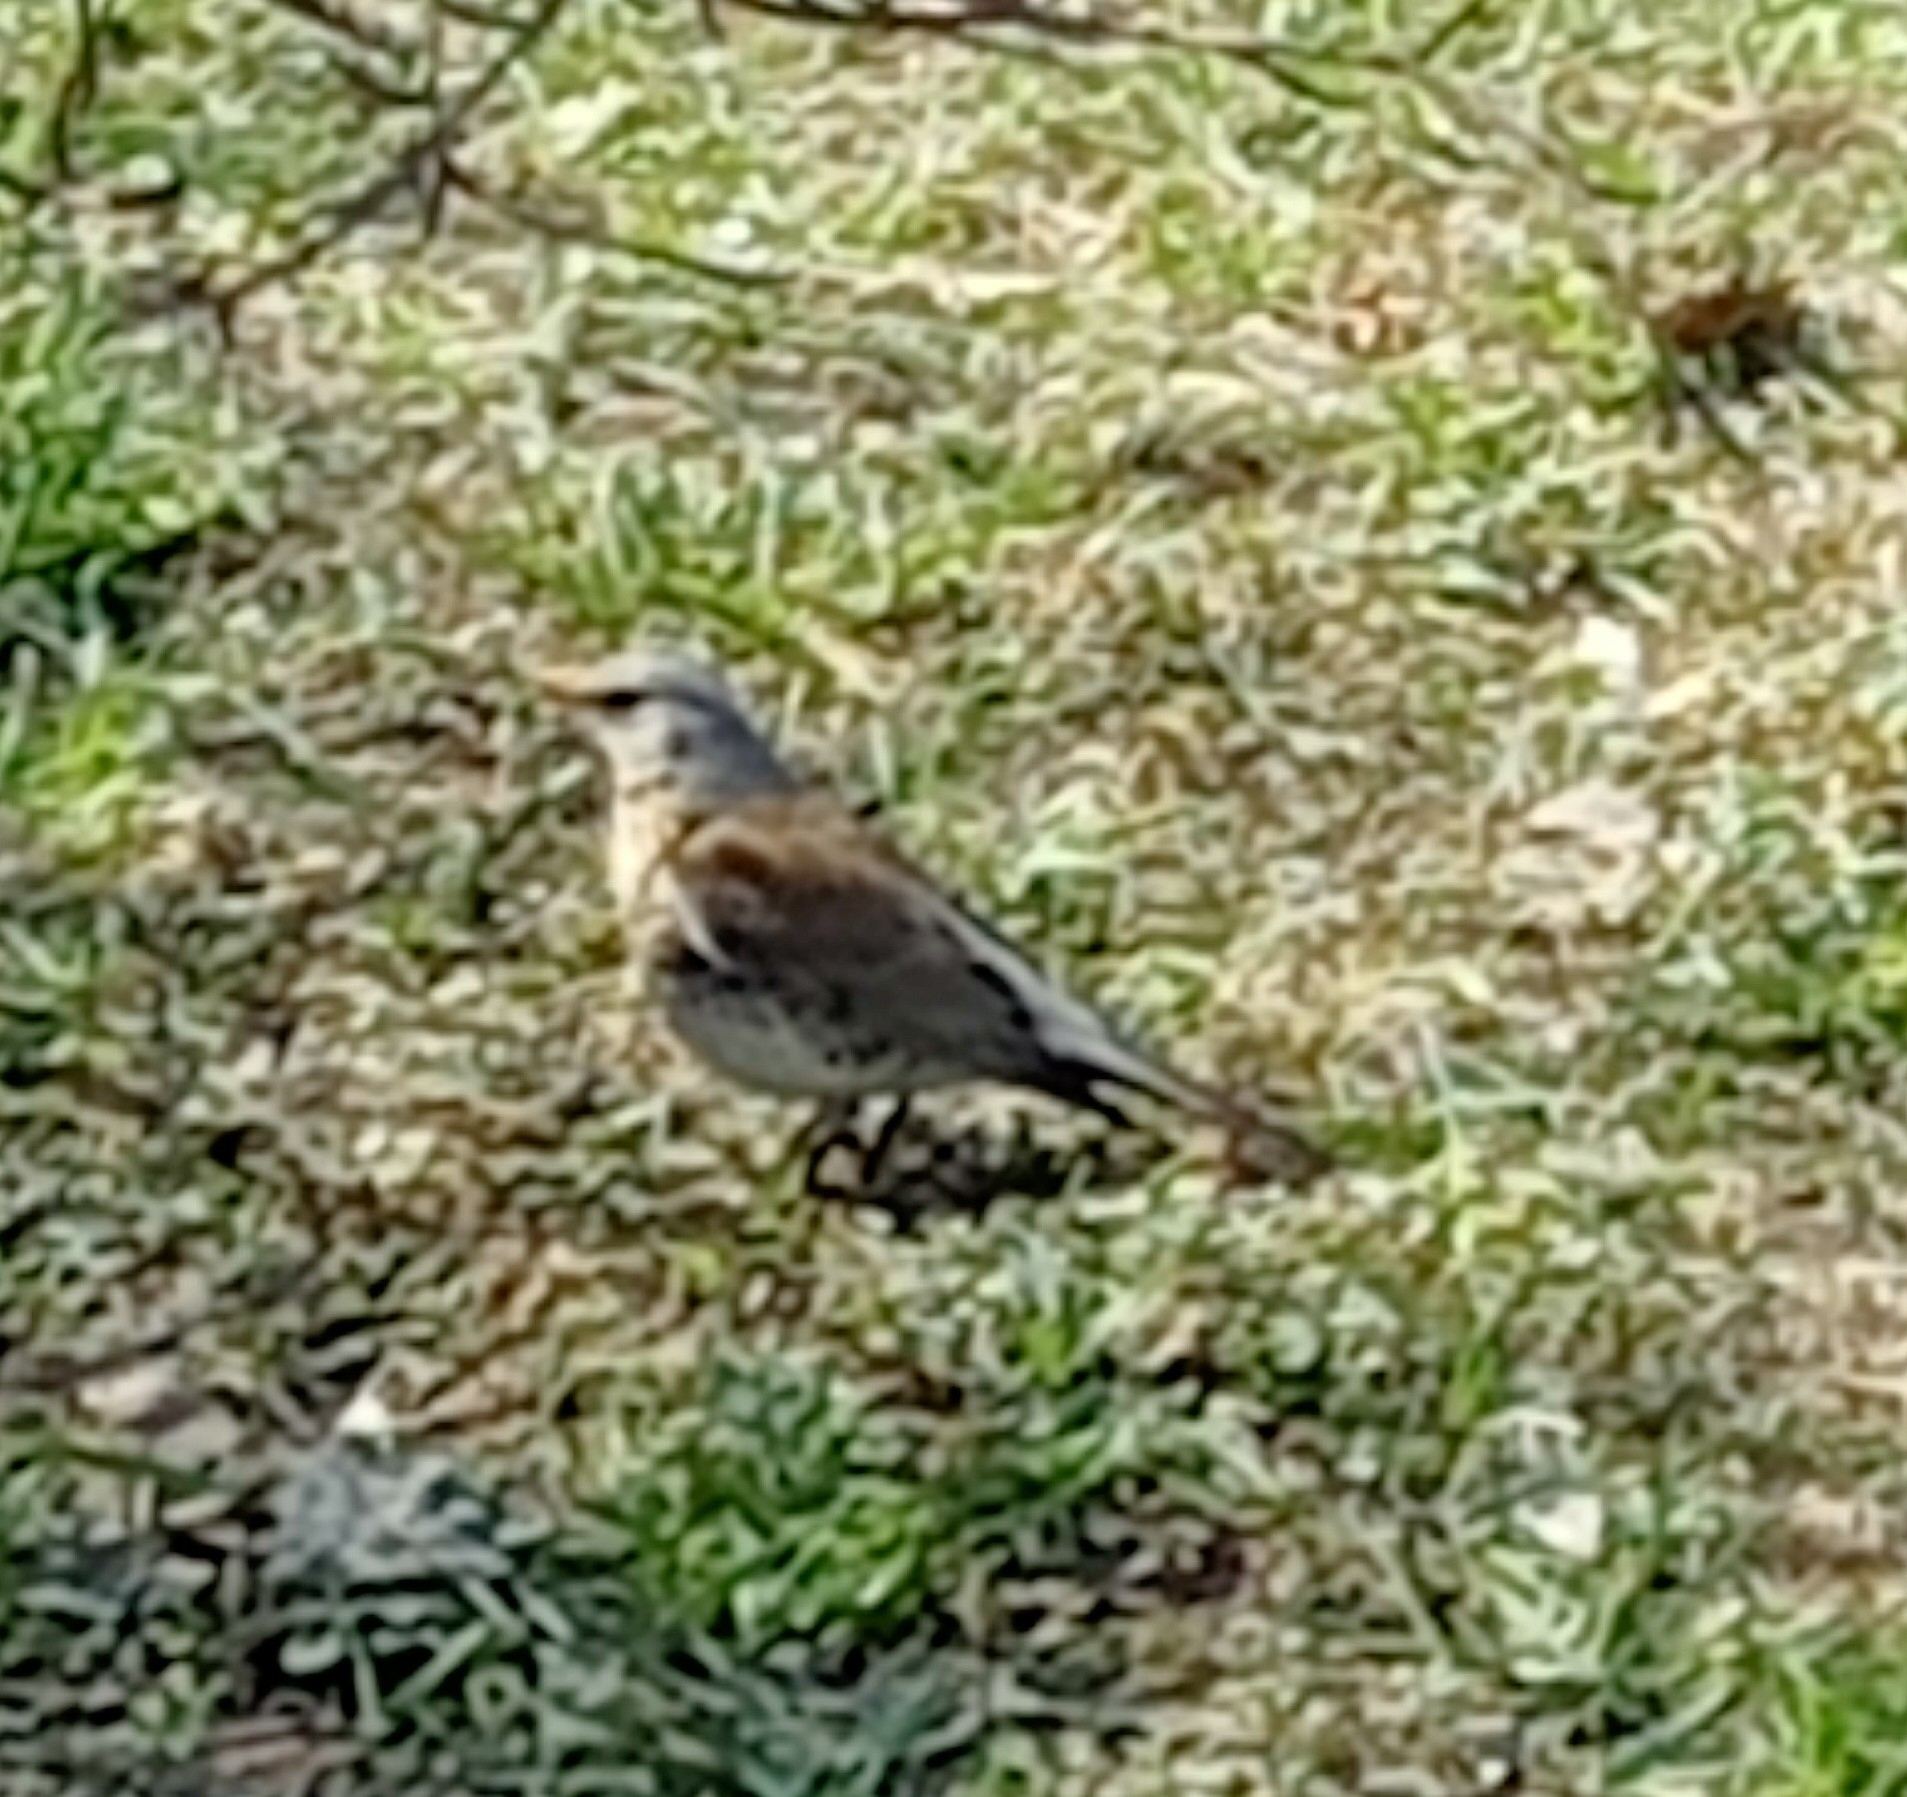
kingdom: Animalia
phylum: Chordata
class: Aves
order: Passeriformes
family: Turdidae
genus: Turdus
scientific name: Turdus pilaris
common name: Fieldfare
